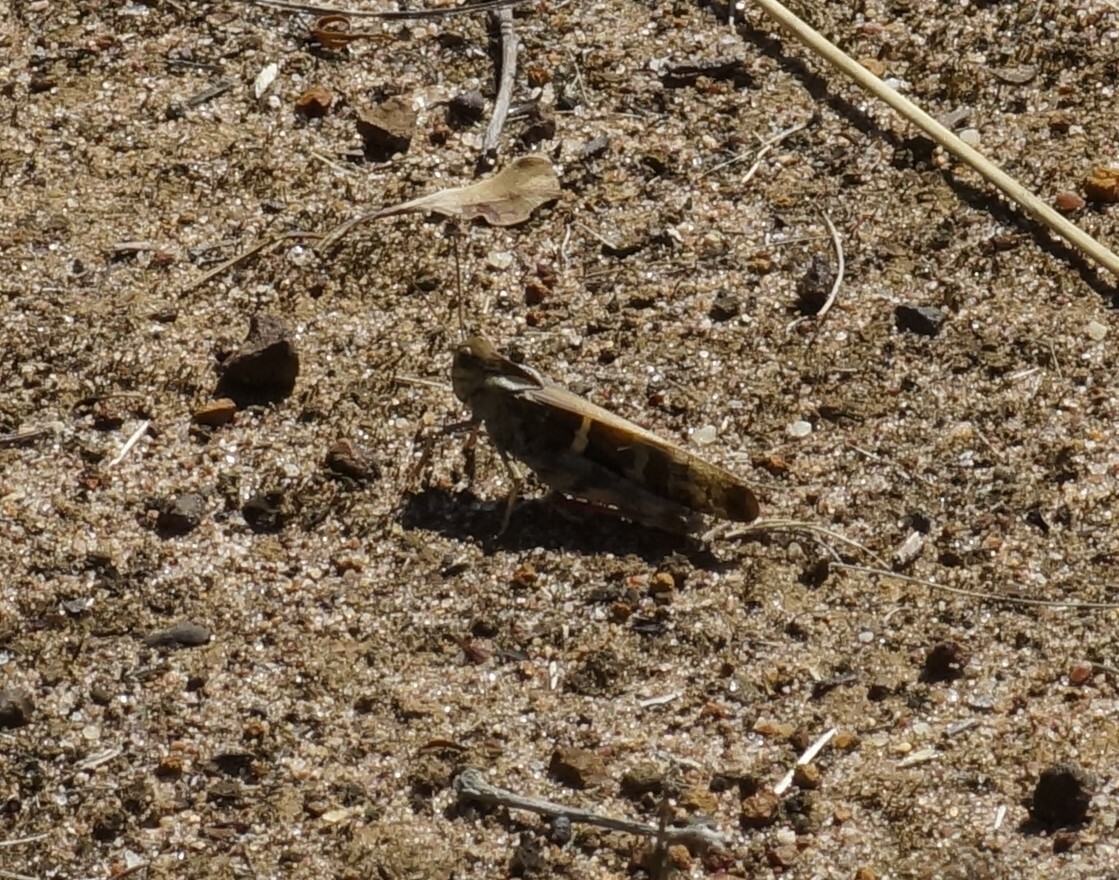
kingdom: Animalia
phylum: Arthropoda
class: Insecta
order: Orthoptera
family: Acrididae
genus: Gastrimargus
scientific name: Gastrimargus musicus
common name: Yellow-winged locust
